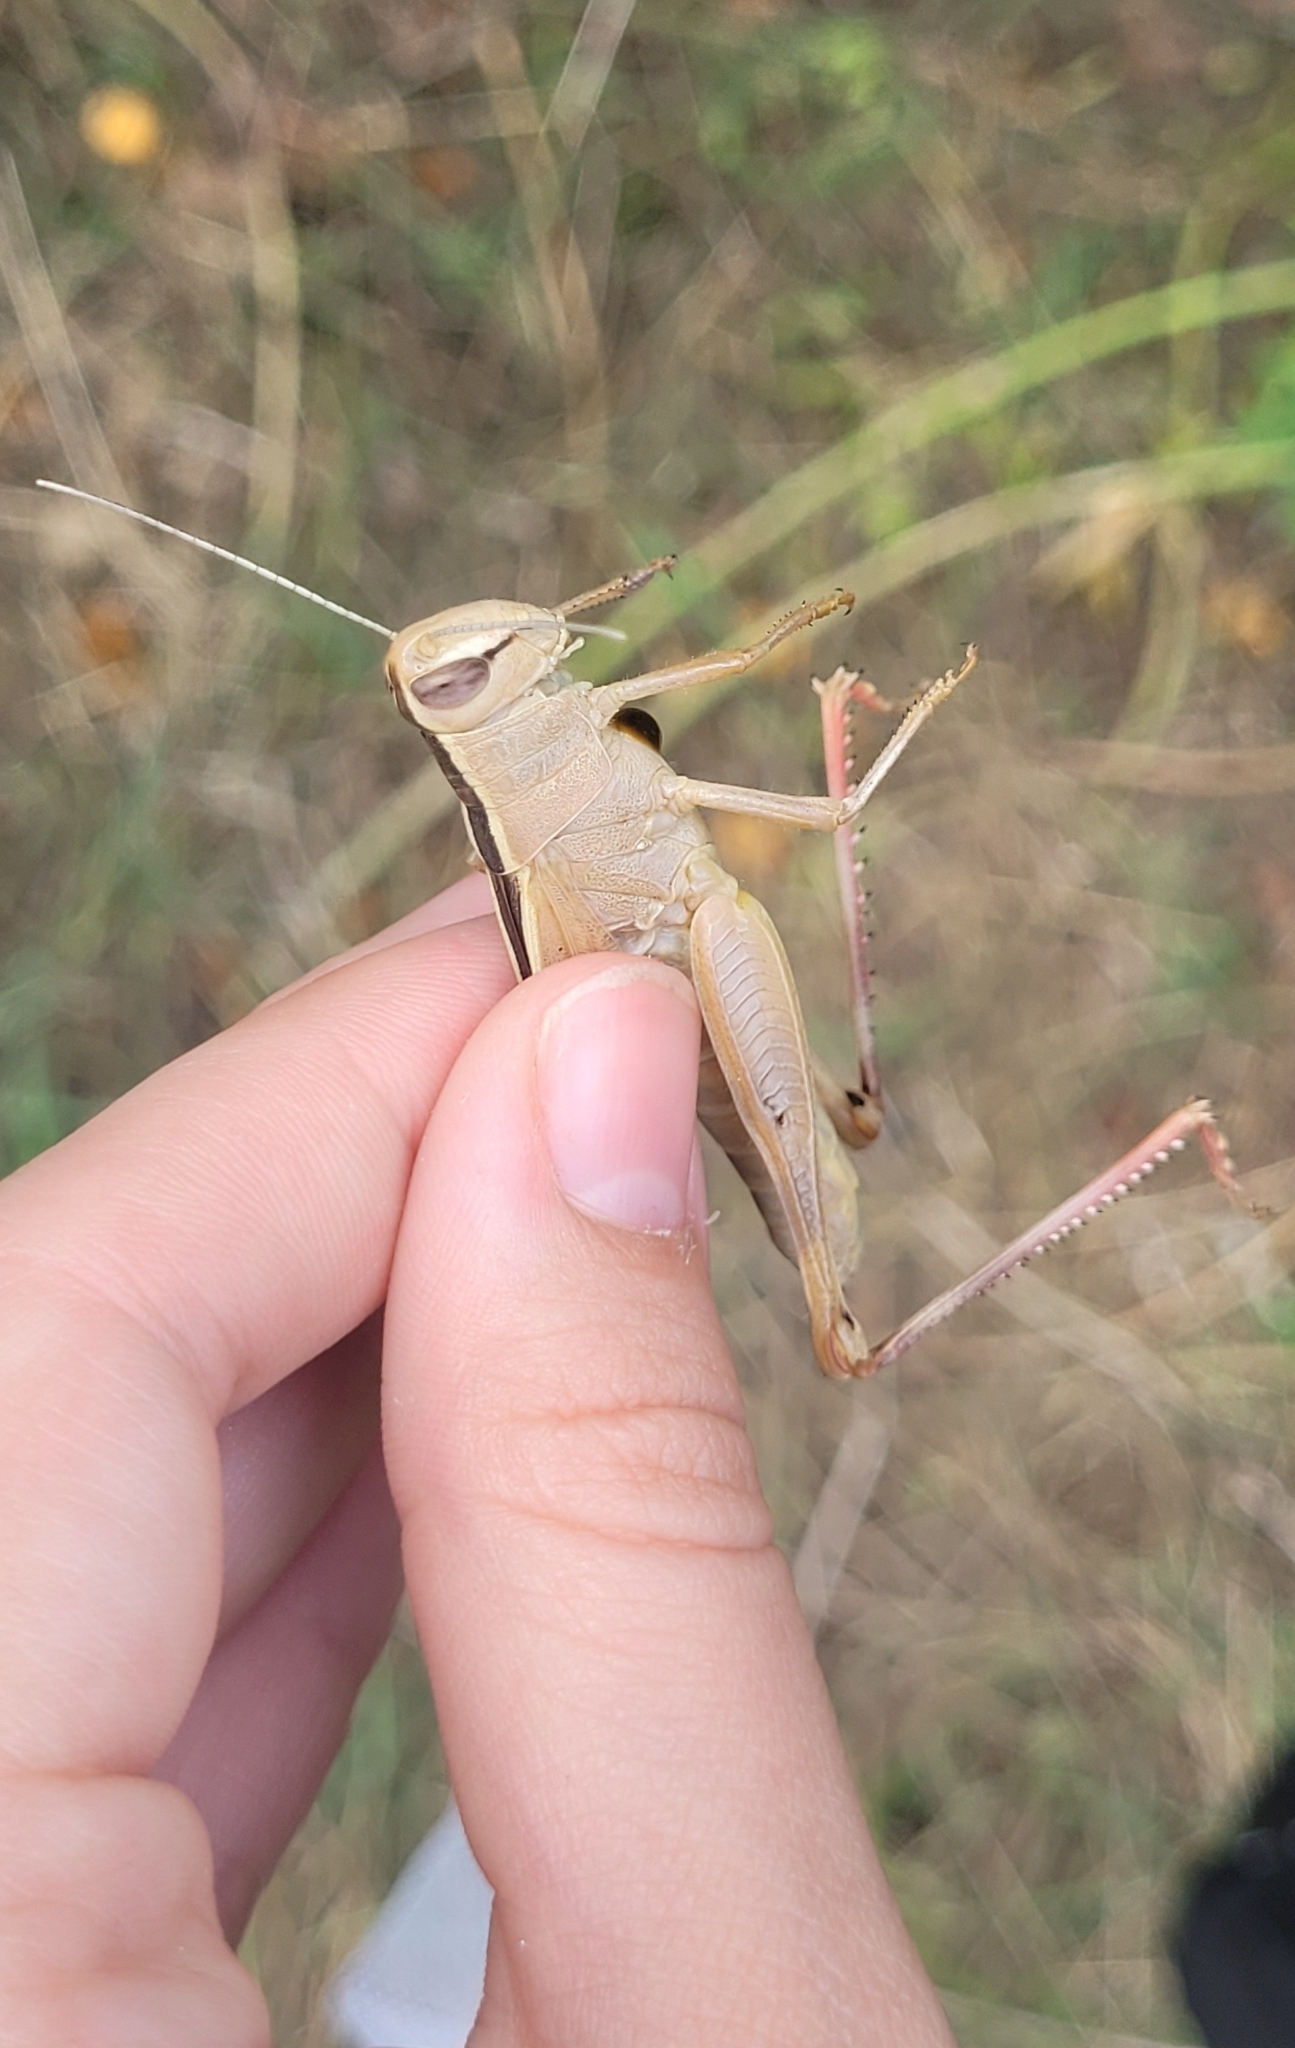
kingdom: Animalia
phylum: Arthropoda
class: Insecta
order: Orthoptera
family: Acrididae
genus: Heteracris
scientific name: Heteracris pterosticha
